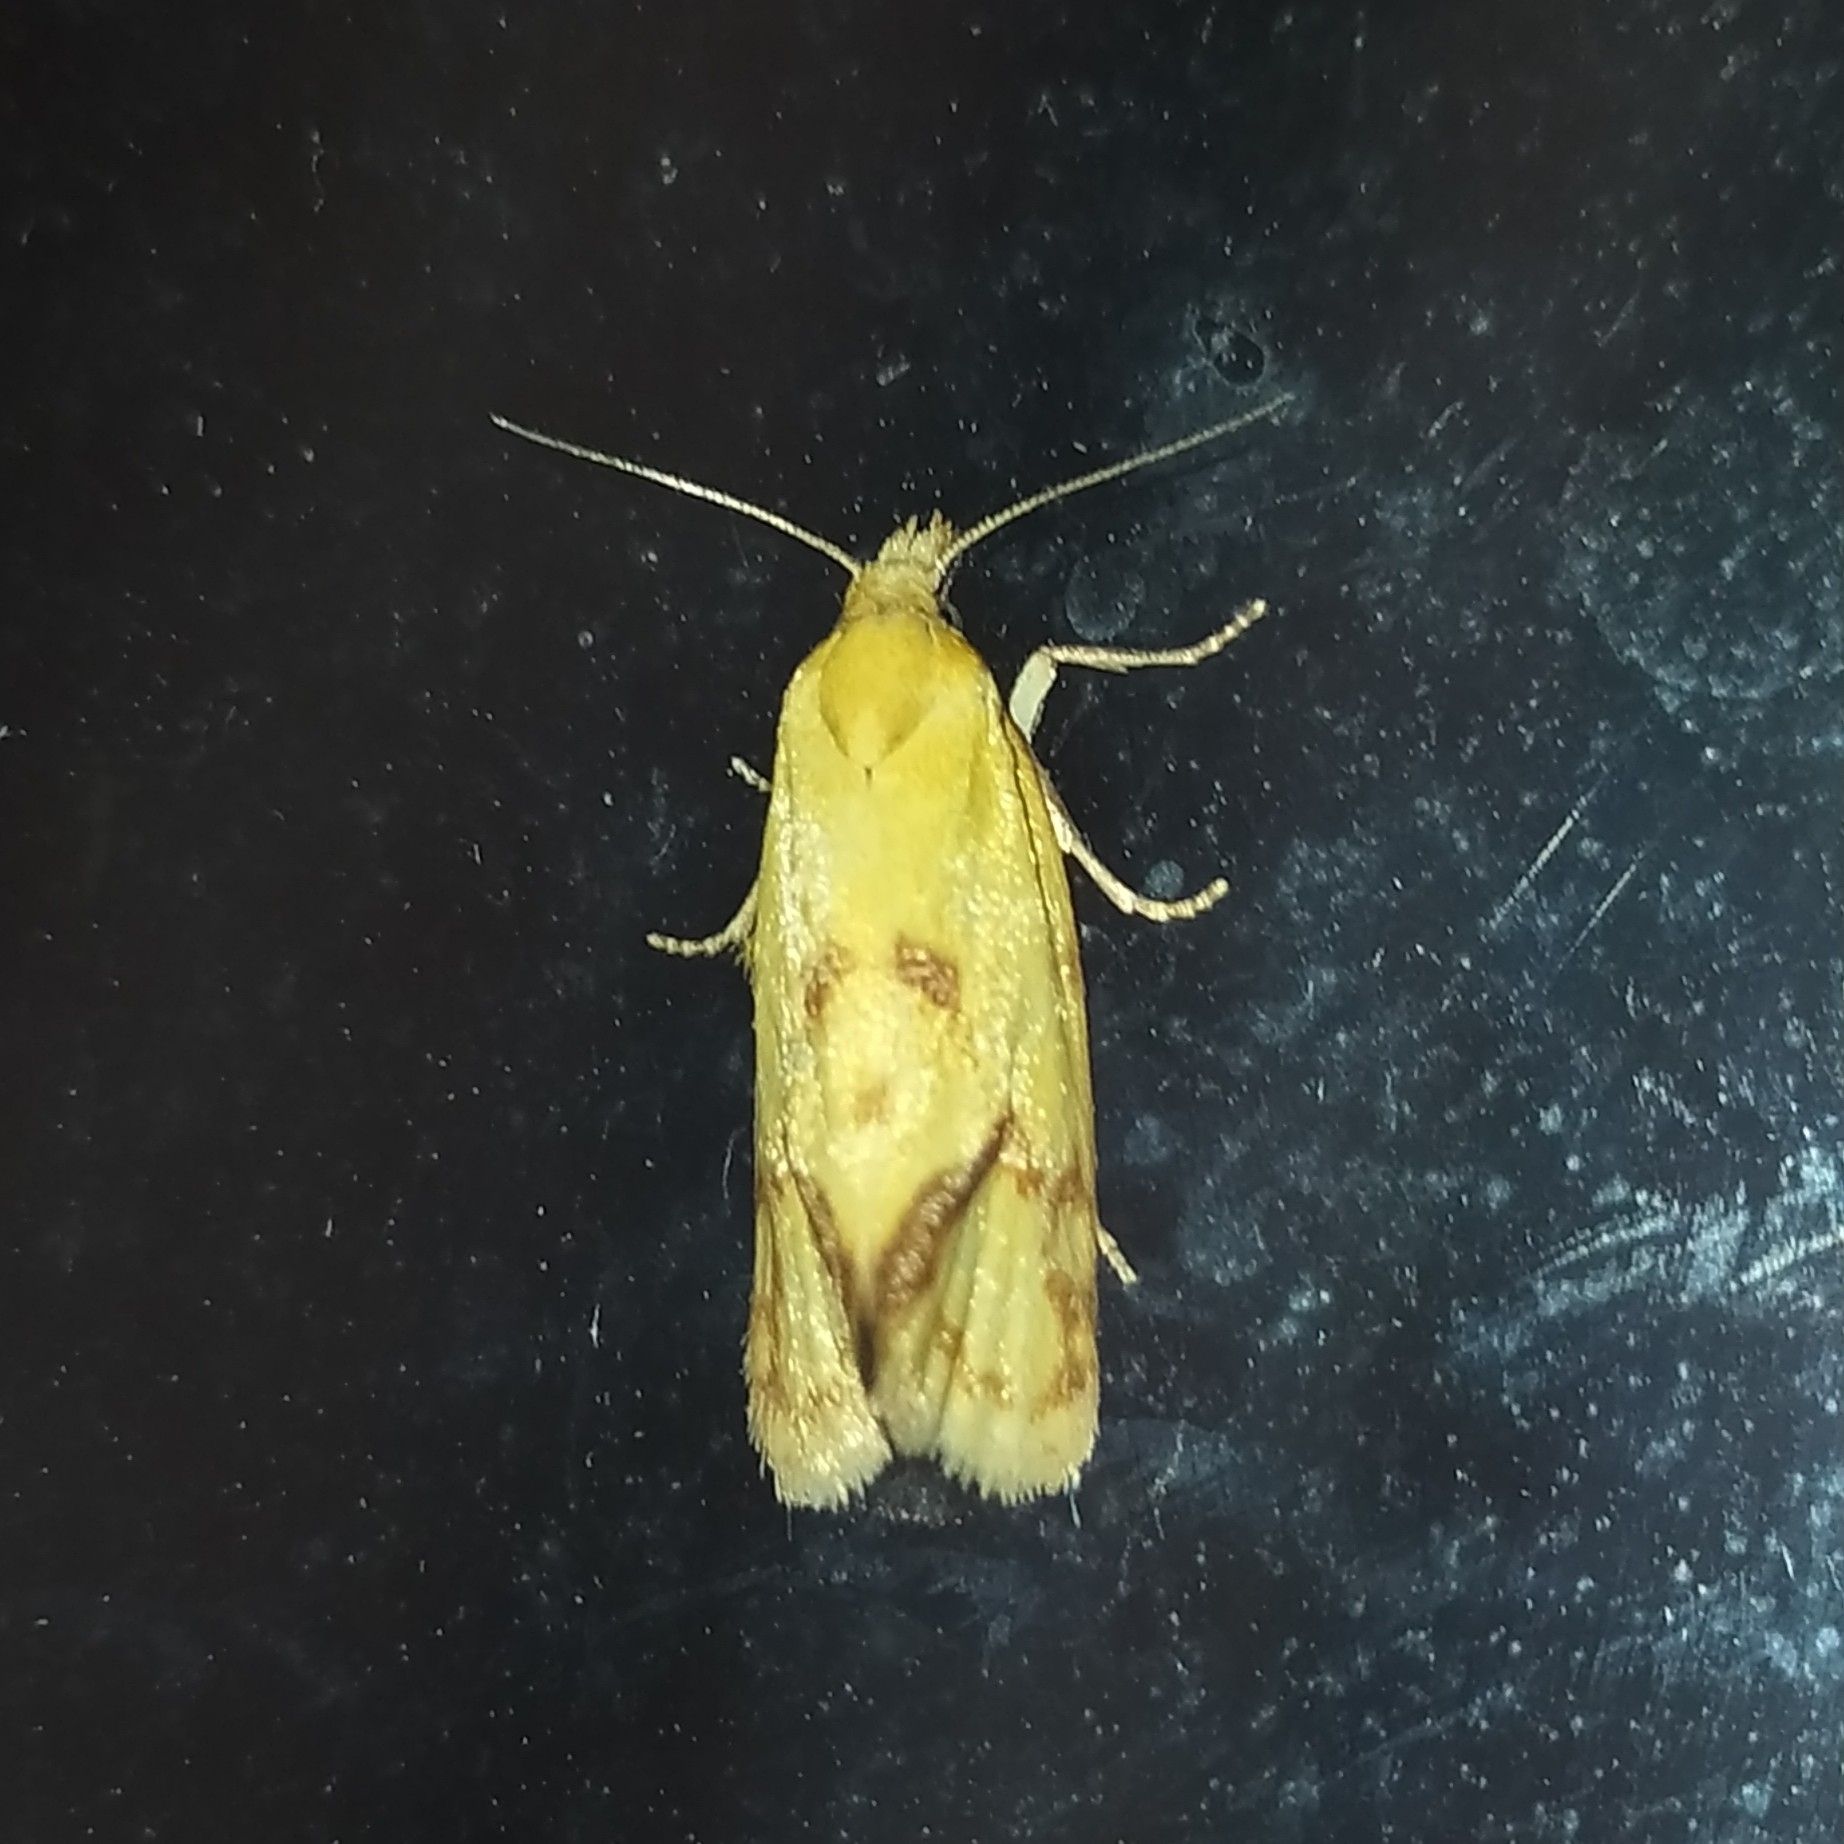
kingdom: Animalia
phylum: Arthropoda
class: Insecta
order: Lepidoptera
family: Tortricidae
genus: Agapeta
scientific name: Agapeta hamana
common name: Common yellow conch
